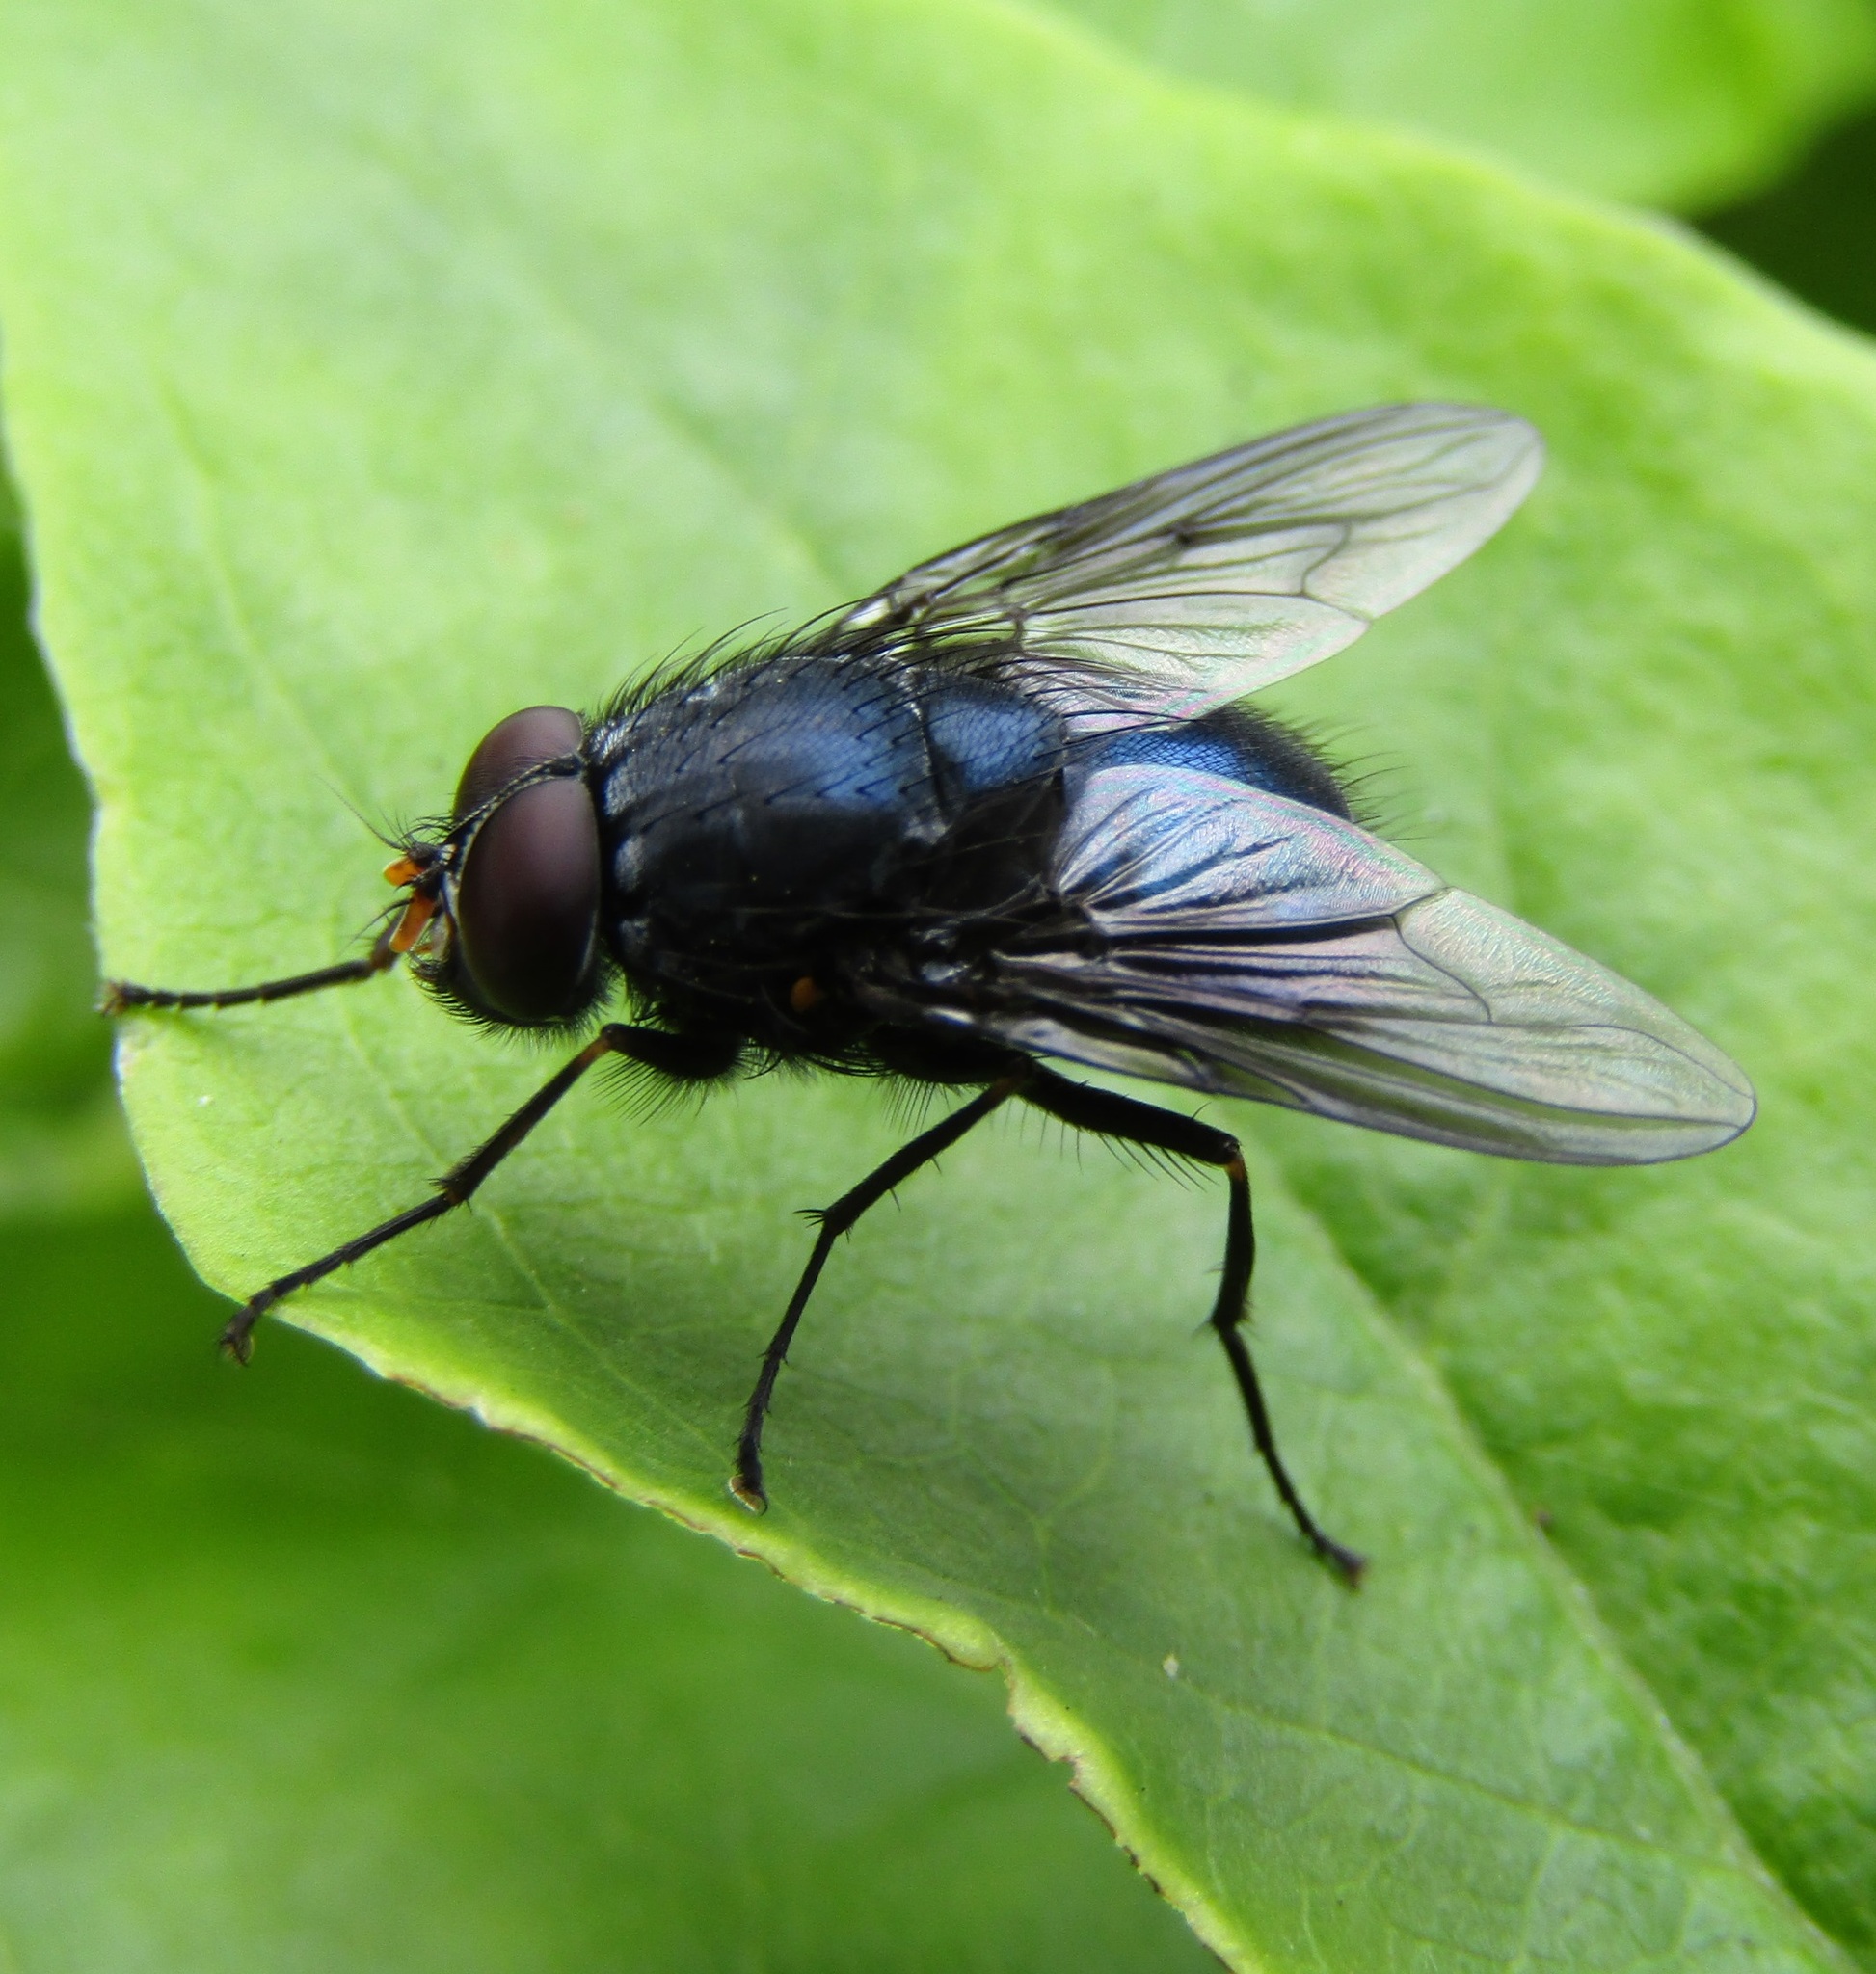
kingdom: Animalia
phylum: Arthropoda
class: Insecta
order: Diptera
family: Muscidae
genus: Calliphoroides
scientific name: Calliphoroides antennatis
